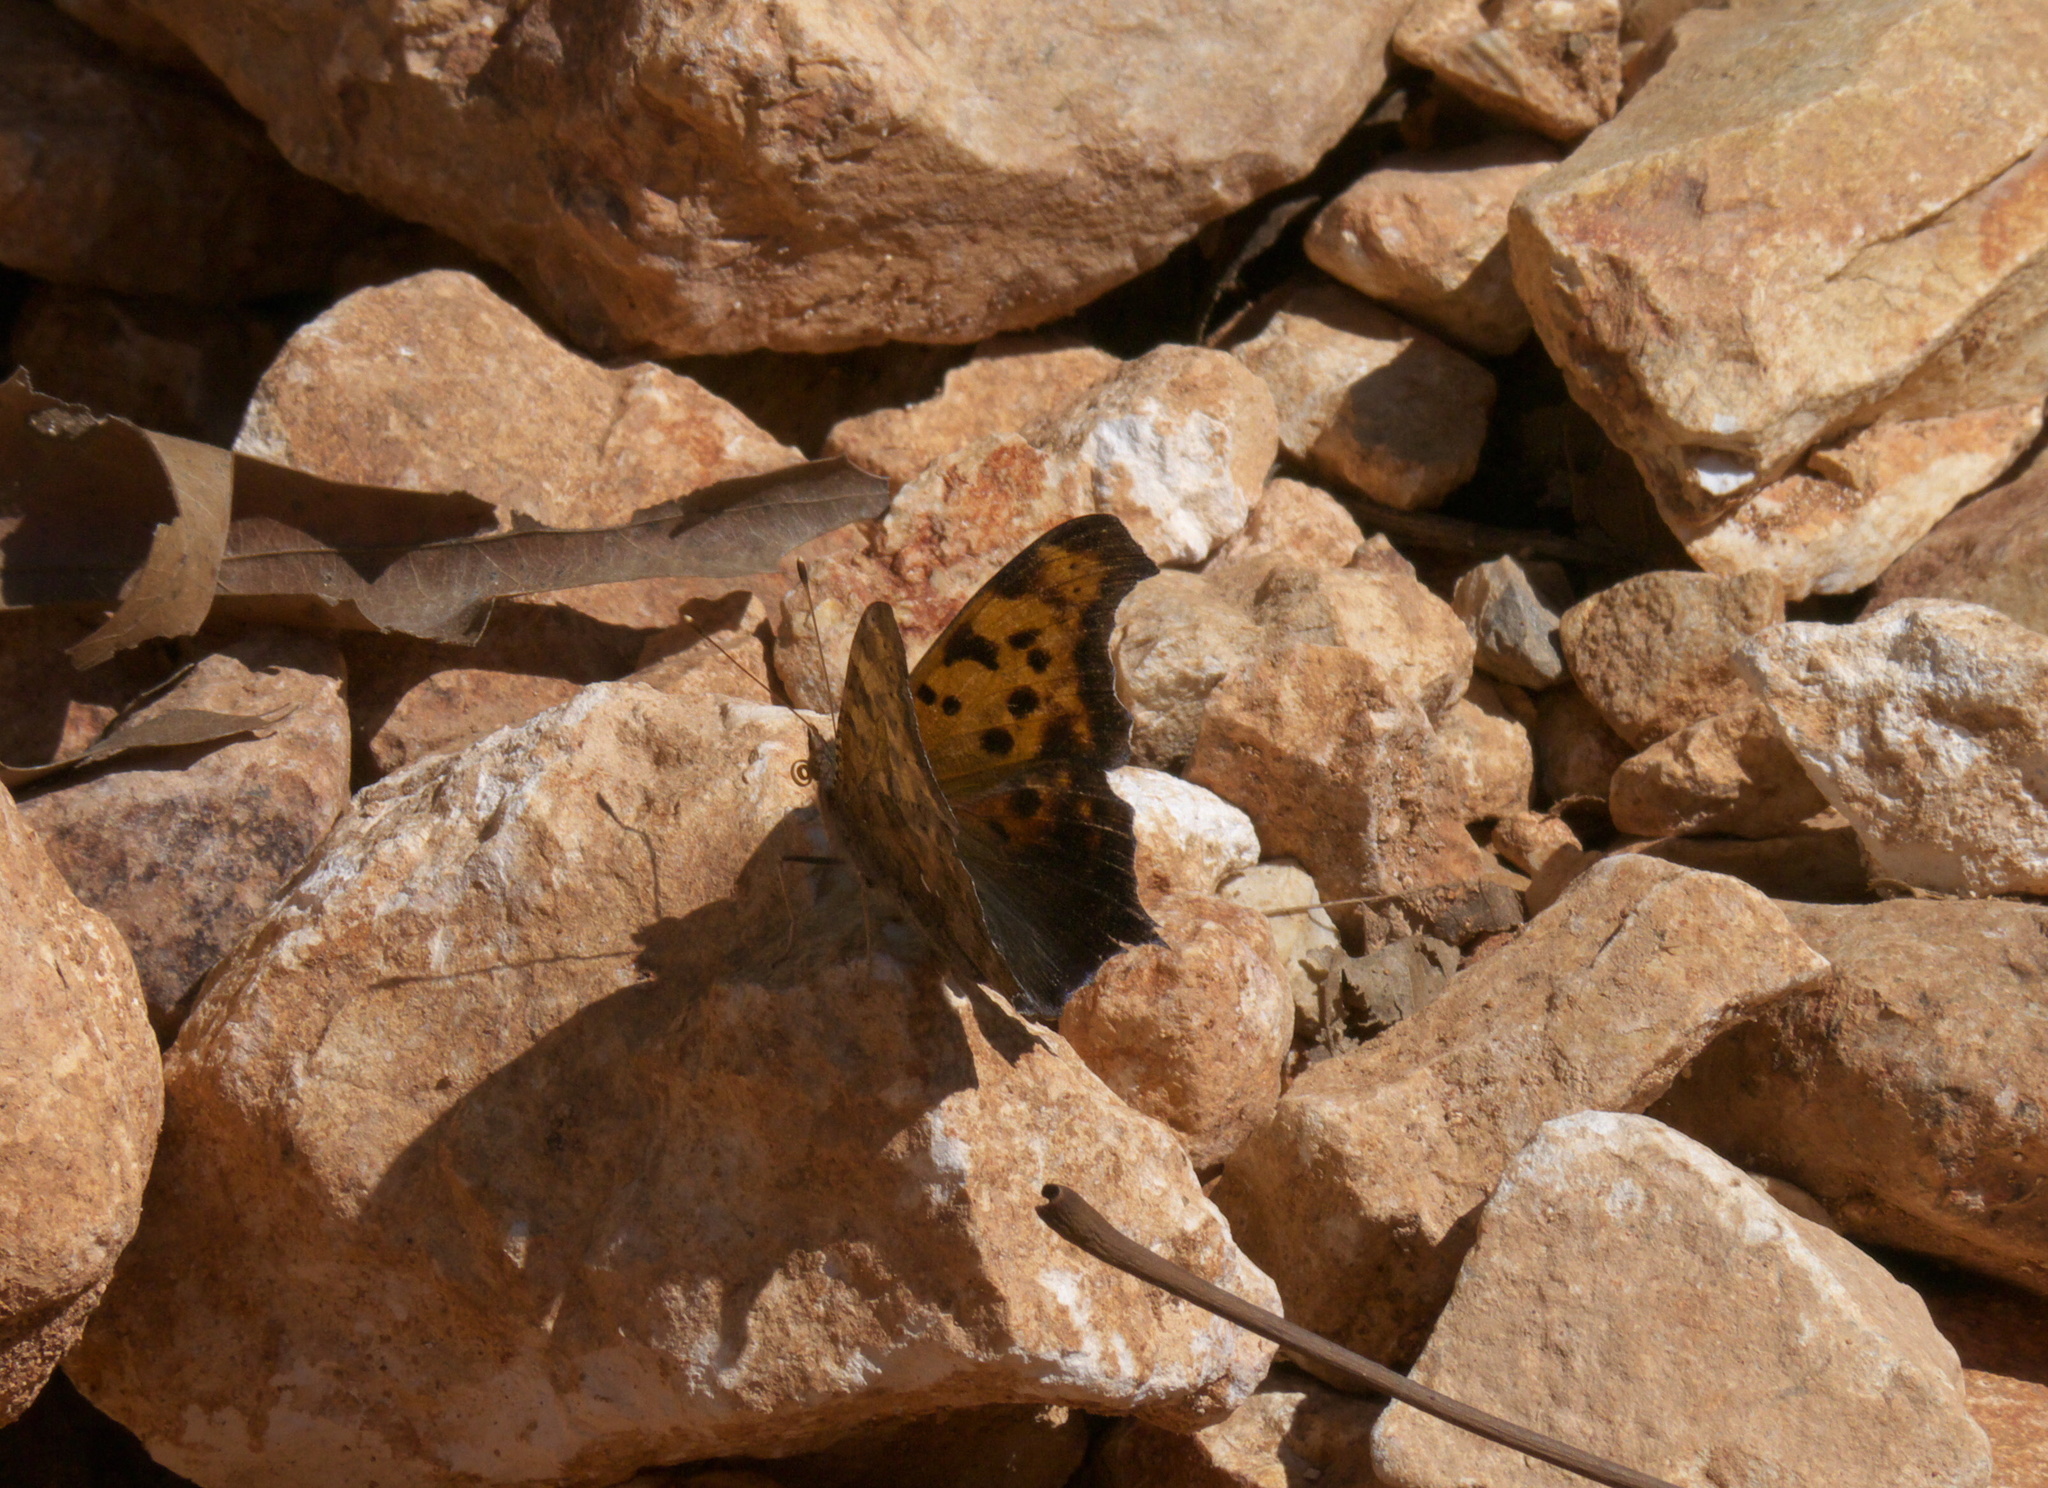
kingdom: Animalia
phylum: Arthropoda
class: Insecta
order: Lepidoptera
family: Nymphalidae
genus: Polygonia
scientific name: Polygonia interrogationis
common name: Question mark
